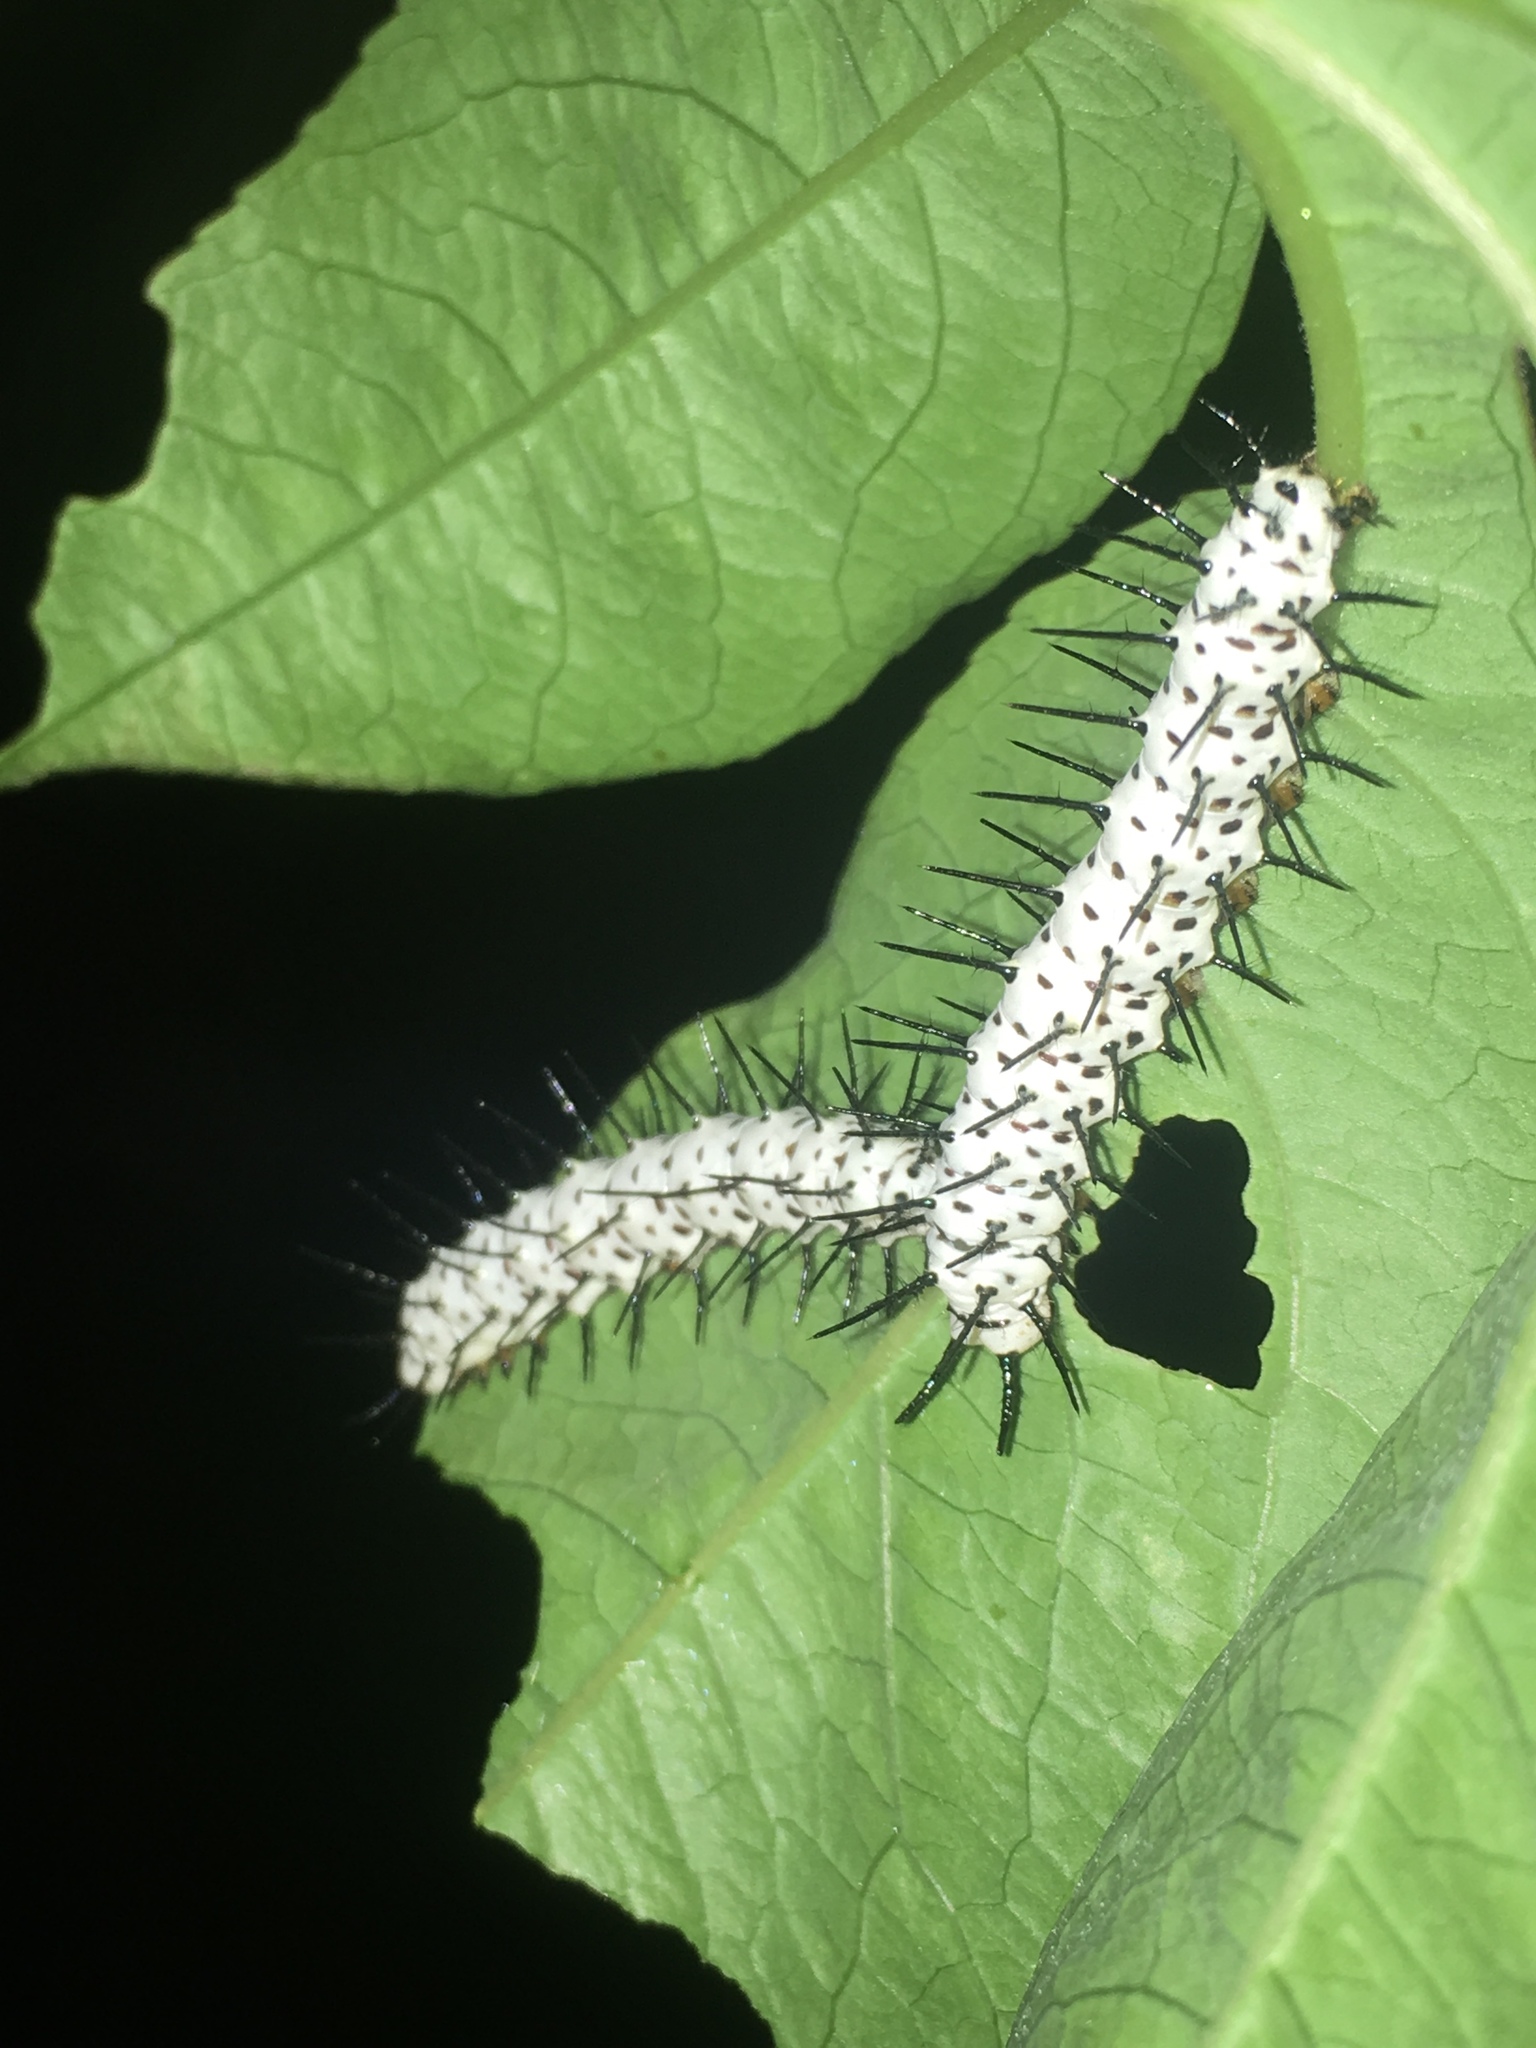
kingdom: Animalia
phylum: Arthropoda
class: Insecta
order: Lepidoptera
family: Nymphalidae
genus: Heliconius
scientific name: Heliconius charithonia
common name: Zebra long wing
